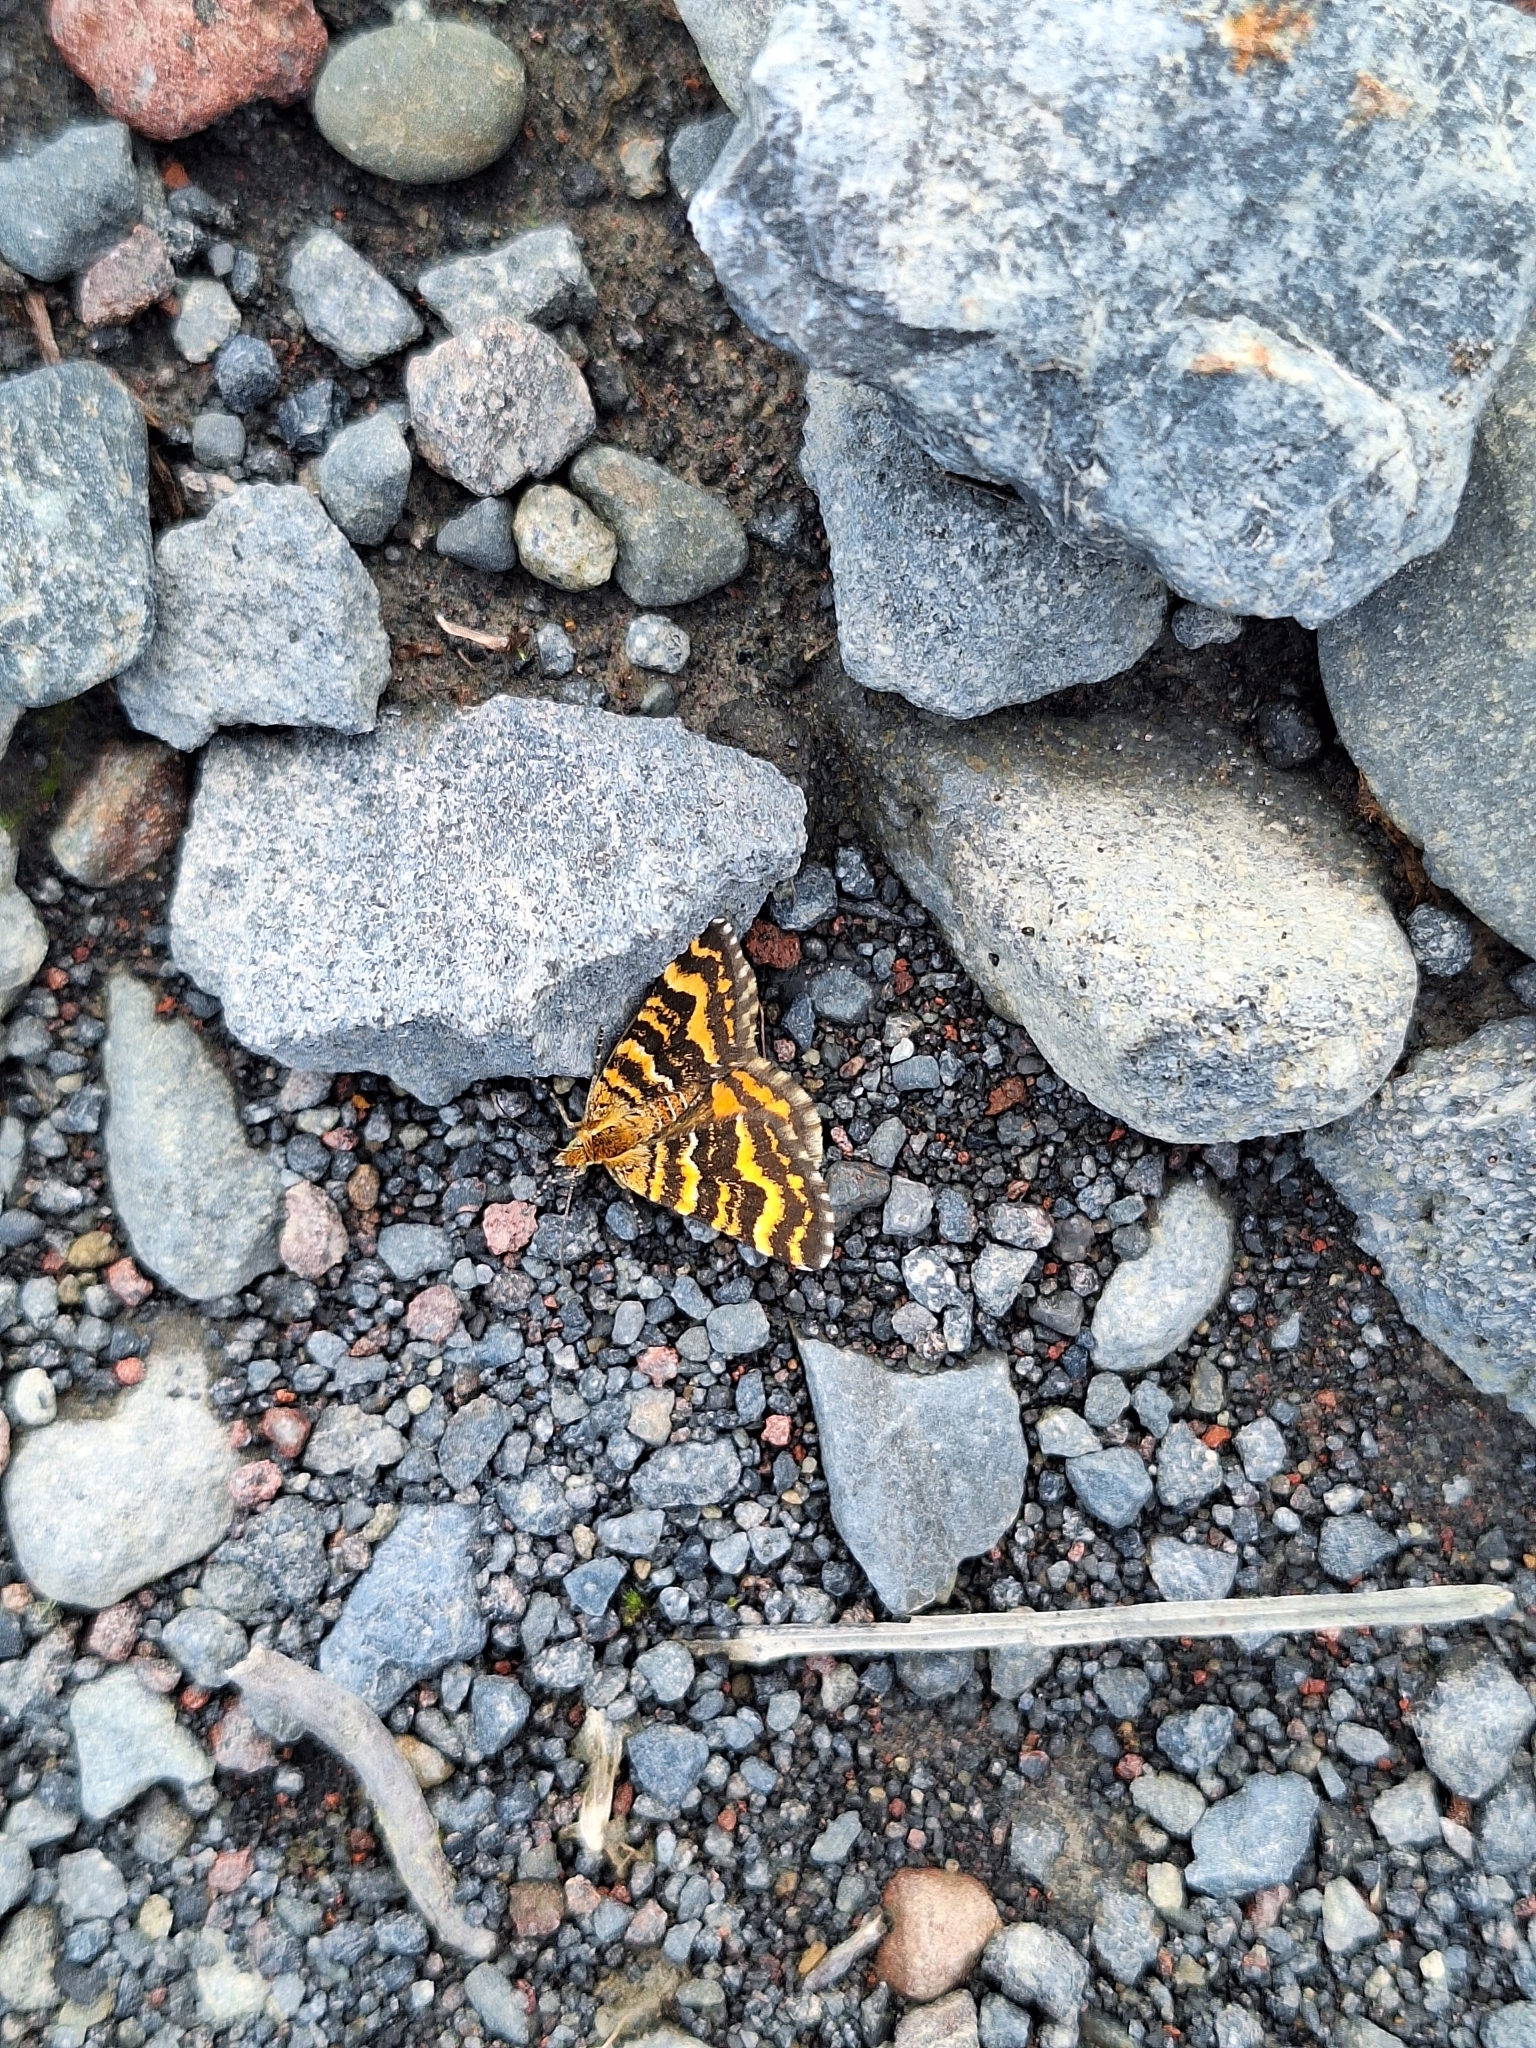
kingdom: Animalia
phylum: Arthropoda
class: Insecta
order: Lepidoptera
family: Geometridae
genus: Notoreas
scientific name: Notoreas perornata
